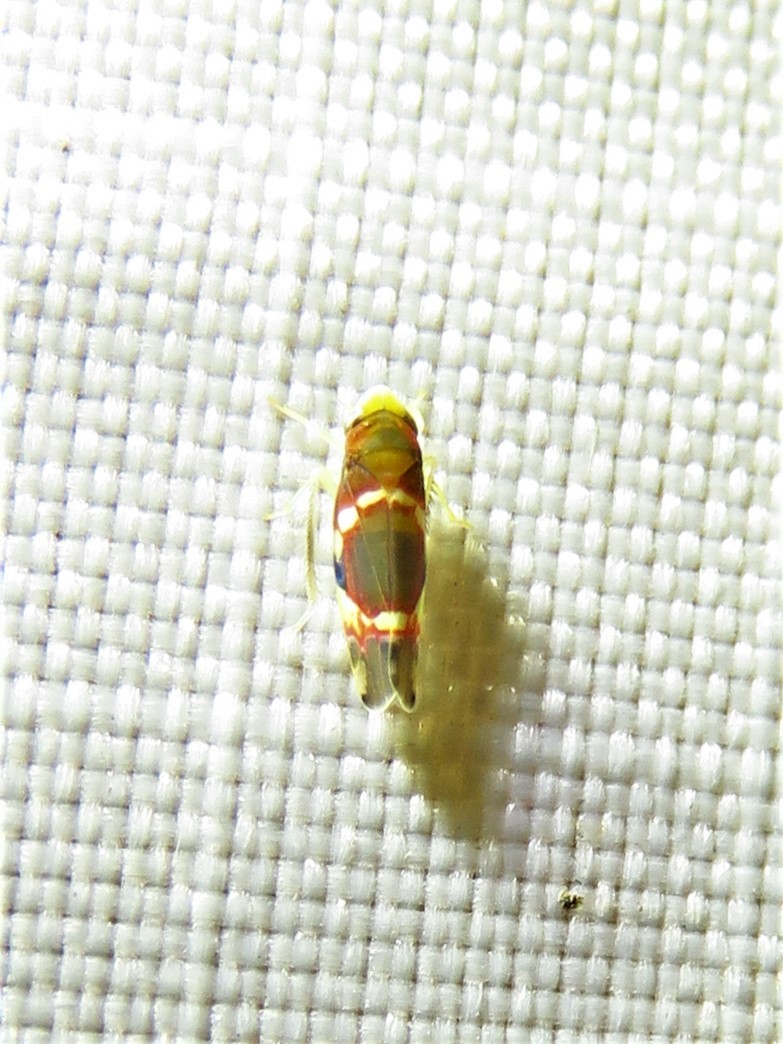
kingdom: Animalia
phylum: Arthropoda
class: Insecta
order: Hemiptera
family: Cicadellidae
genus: Erythroneura
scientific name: Erythroneura vitis
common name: Grapevine leafhopper
